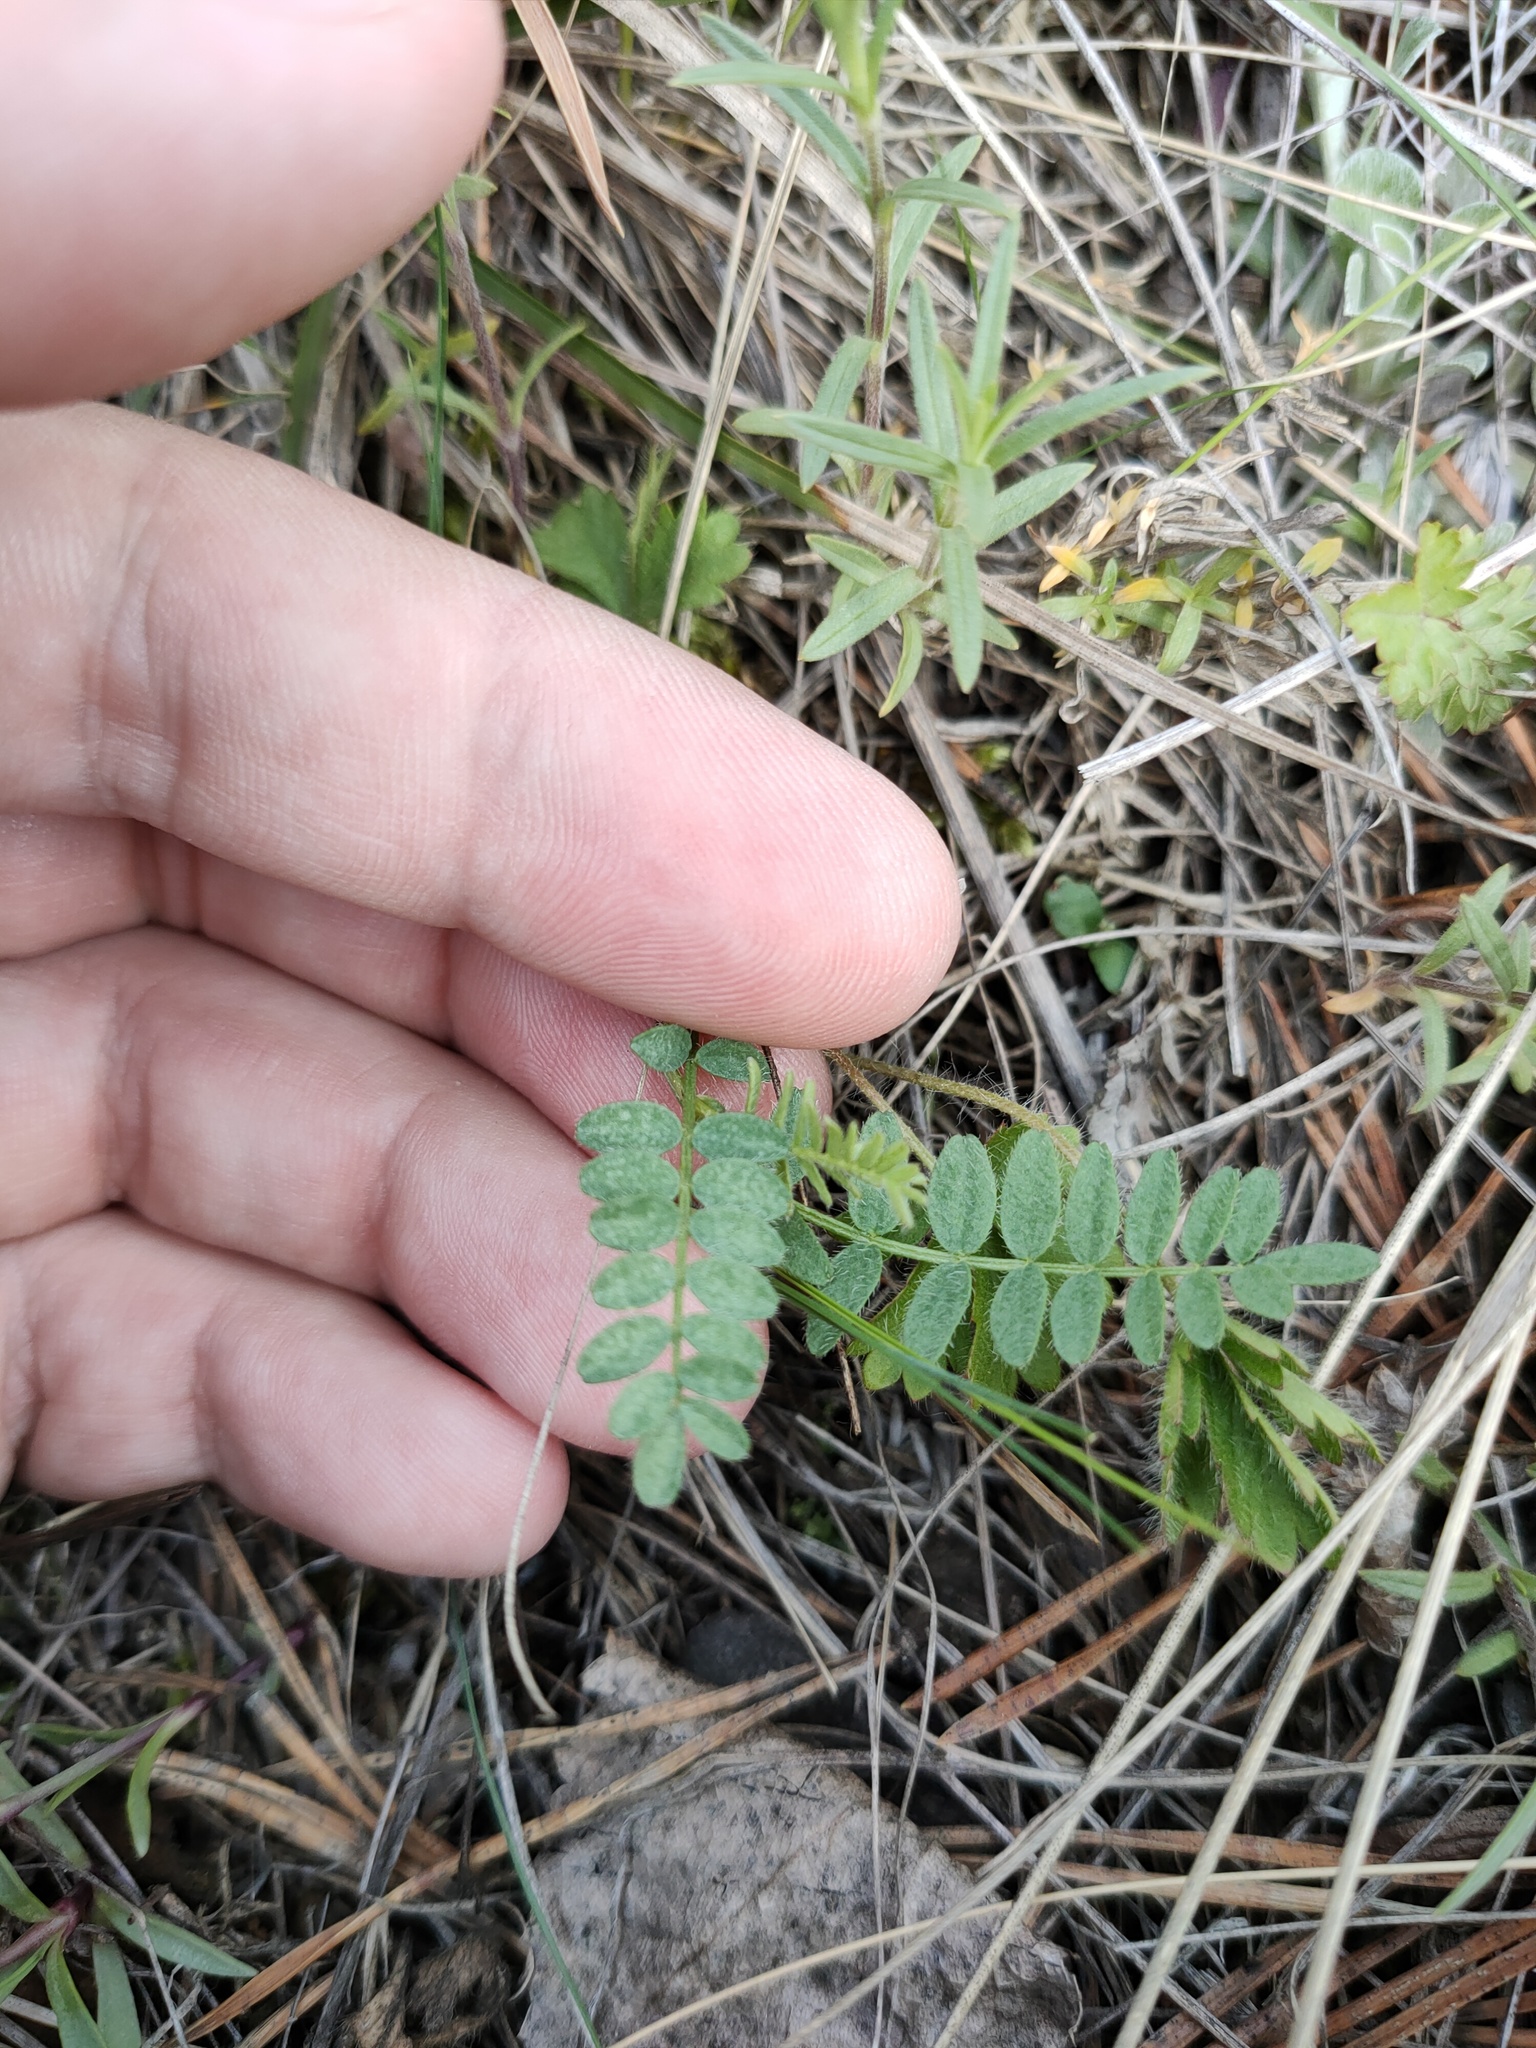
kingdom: Plantae
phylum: Tracheophyta
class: Magnoliopsida
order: Fabales
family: Fabaceae
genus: Astragalus
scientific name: Astragalus danicus
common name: Purple milk-vetch
